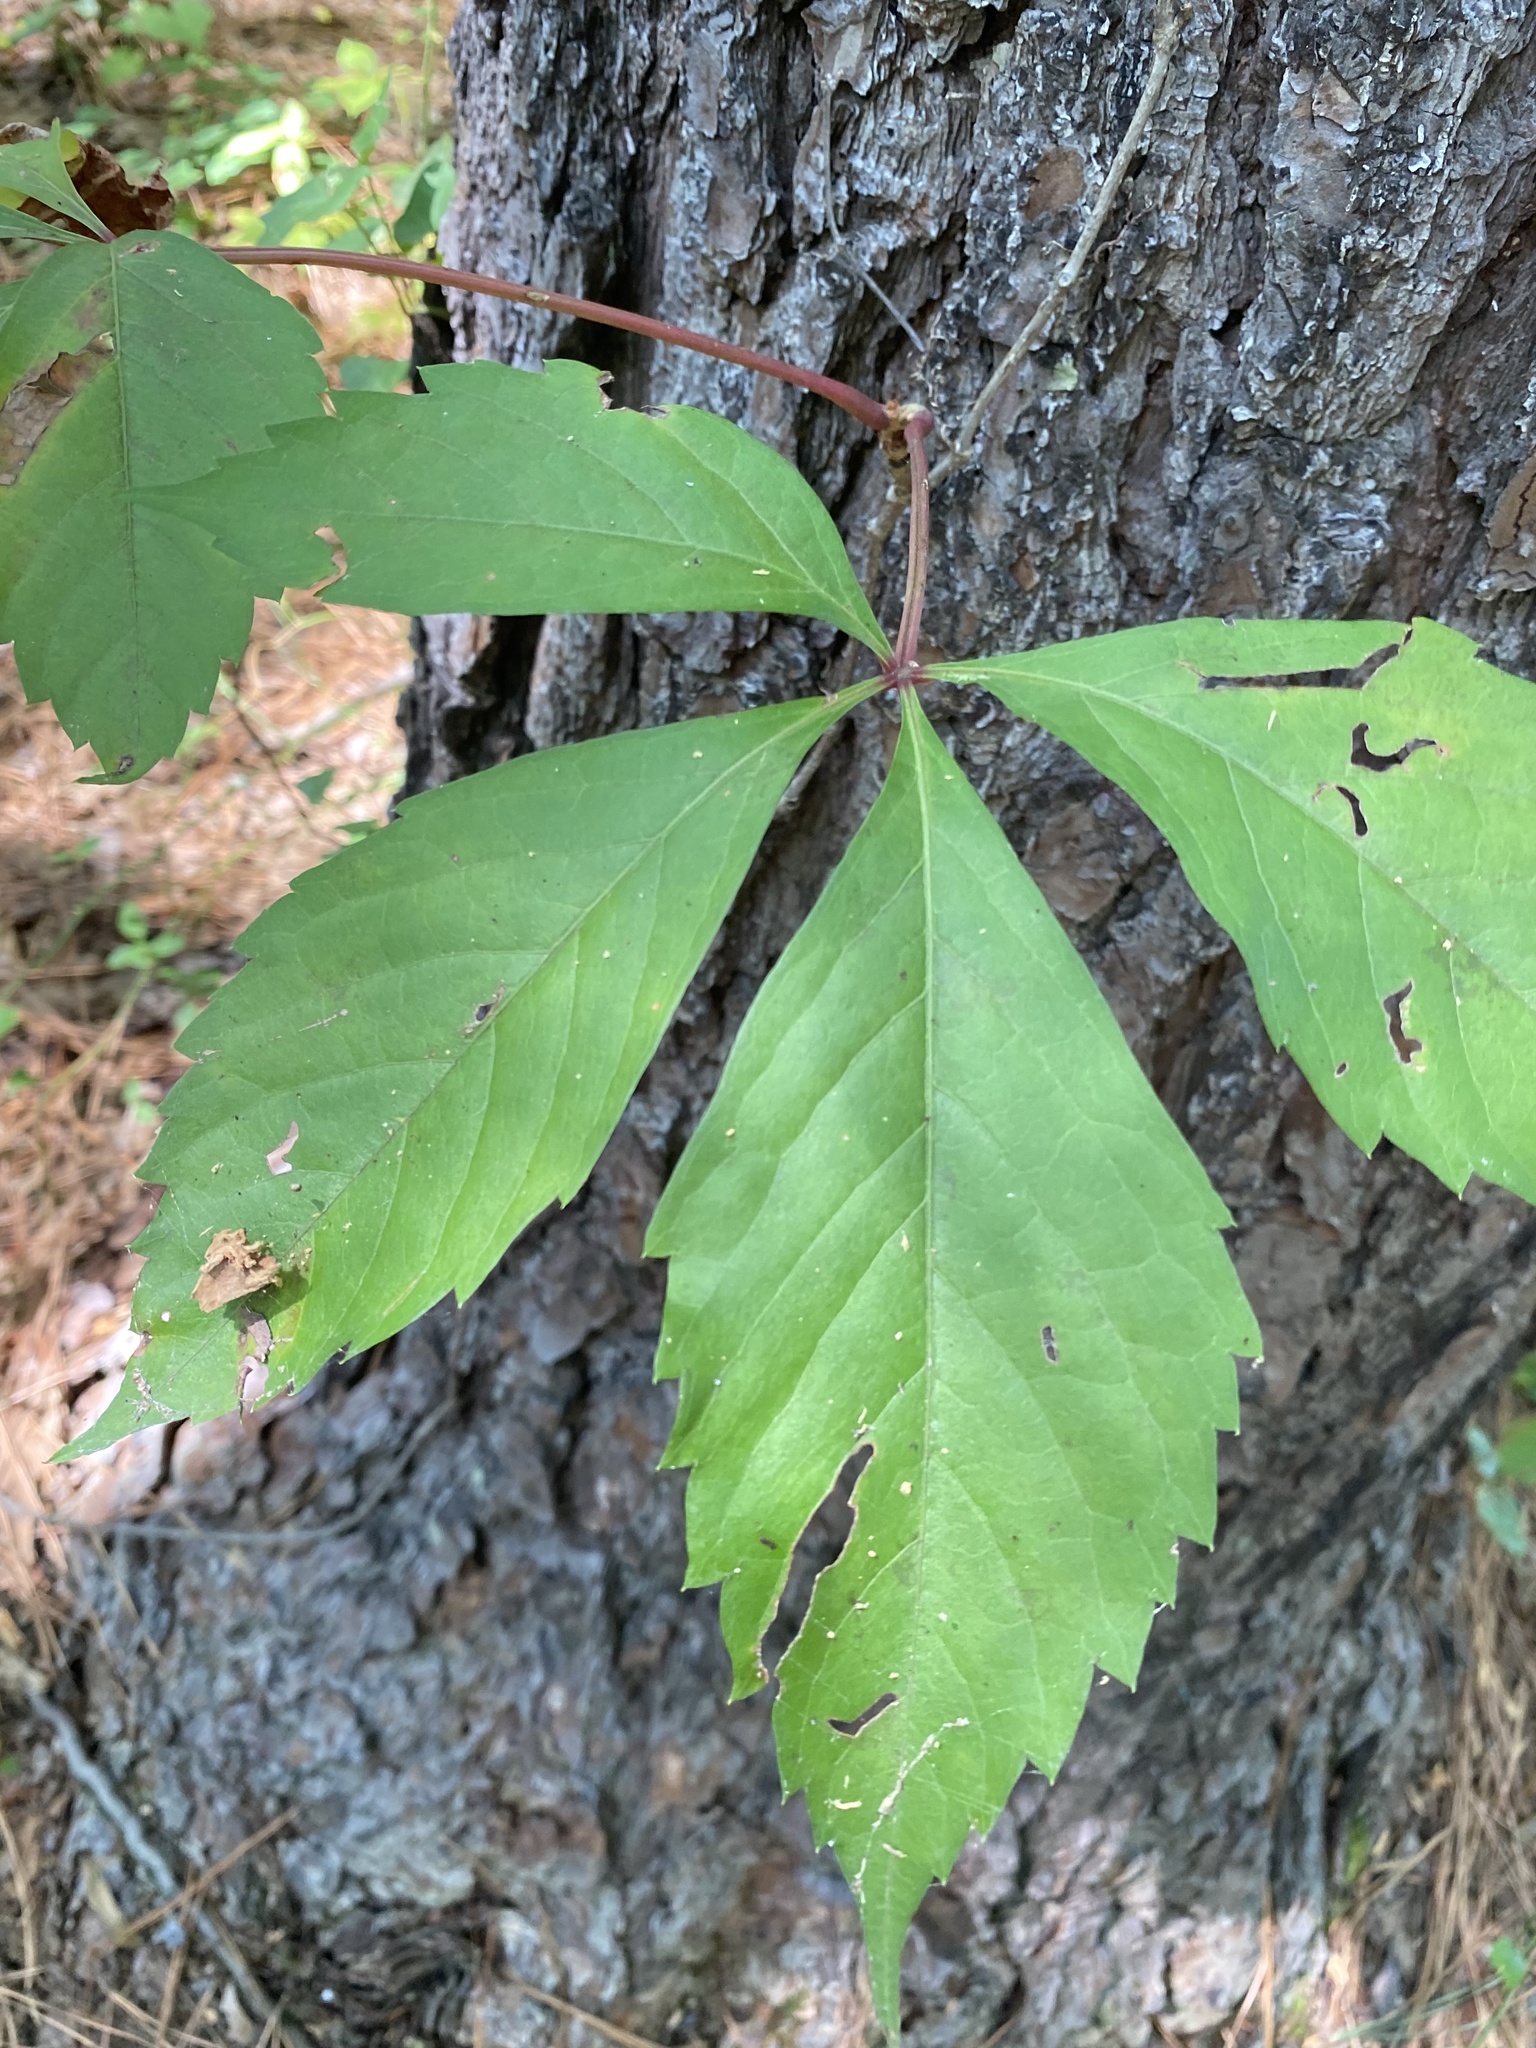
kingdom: Plantae
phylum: Tracheophyta
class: Magnoliopsida
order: Vitales
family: Vitaceae
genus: Parthenocissus
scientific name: Parthenocissus quinquefolia
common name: Virginia-creeper
